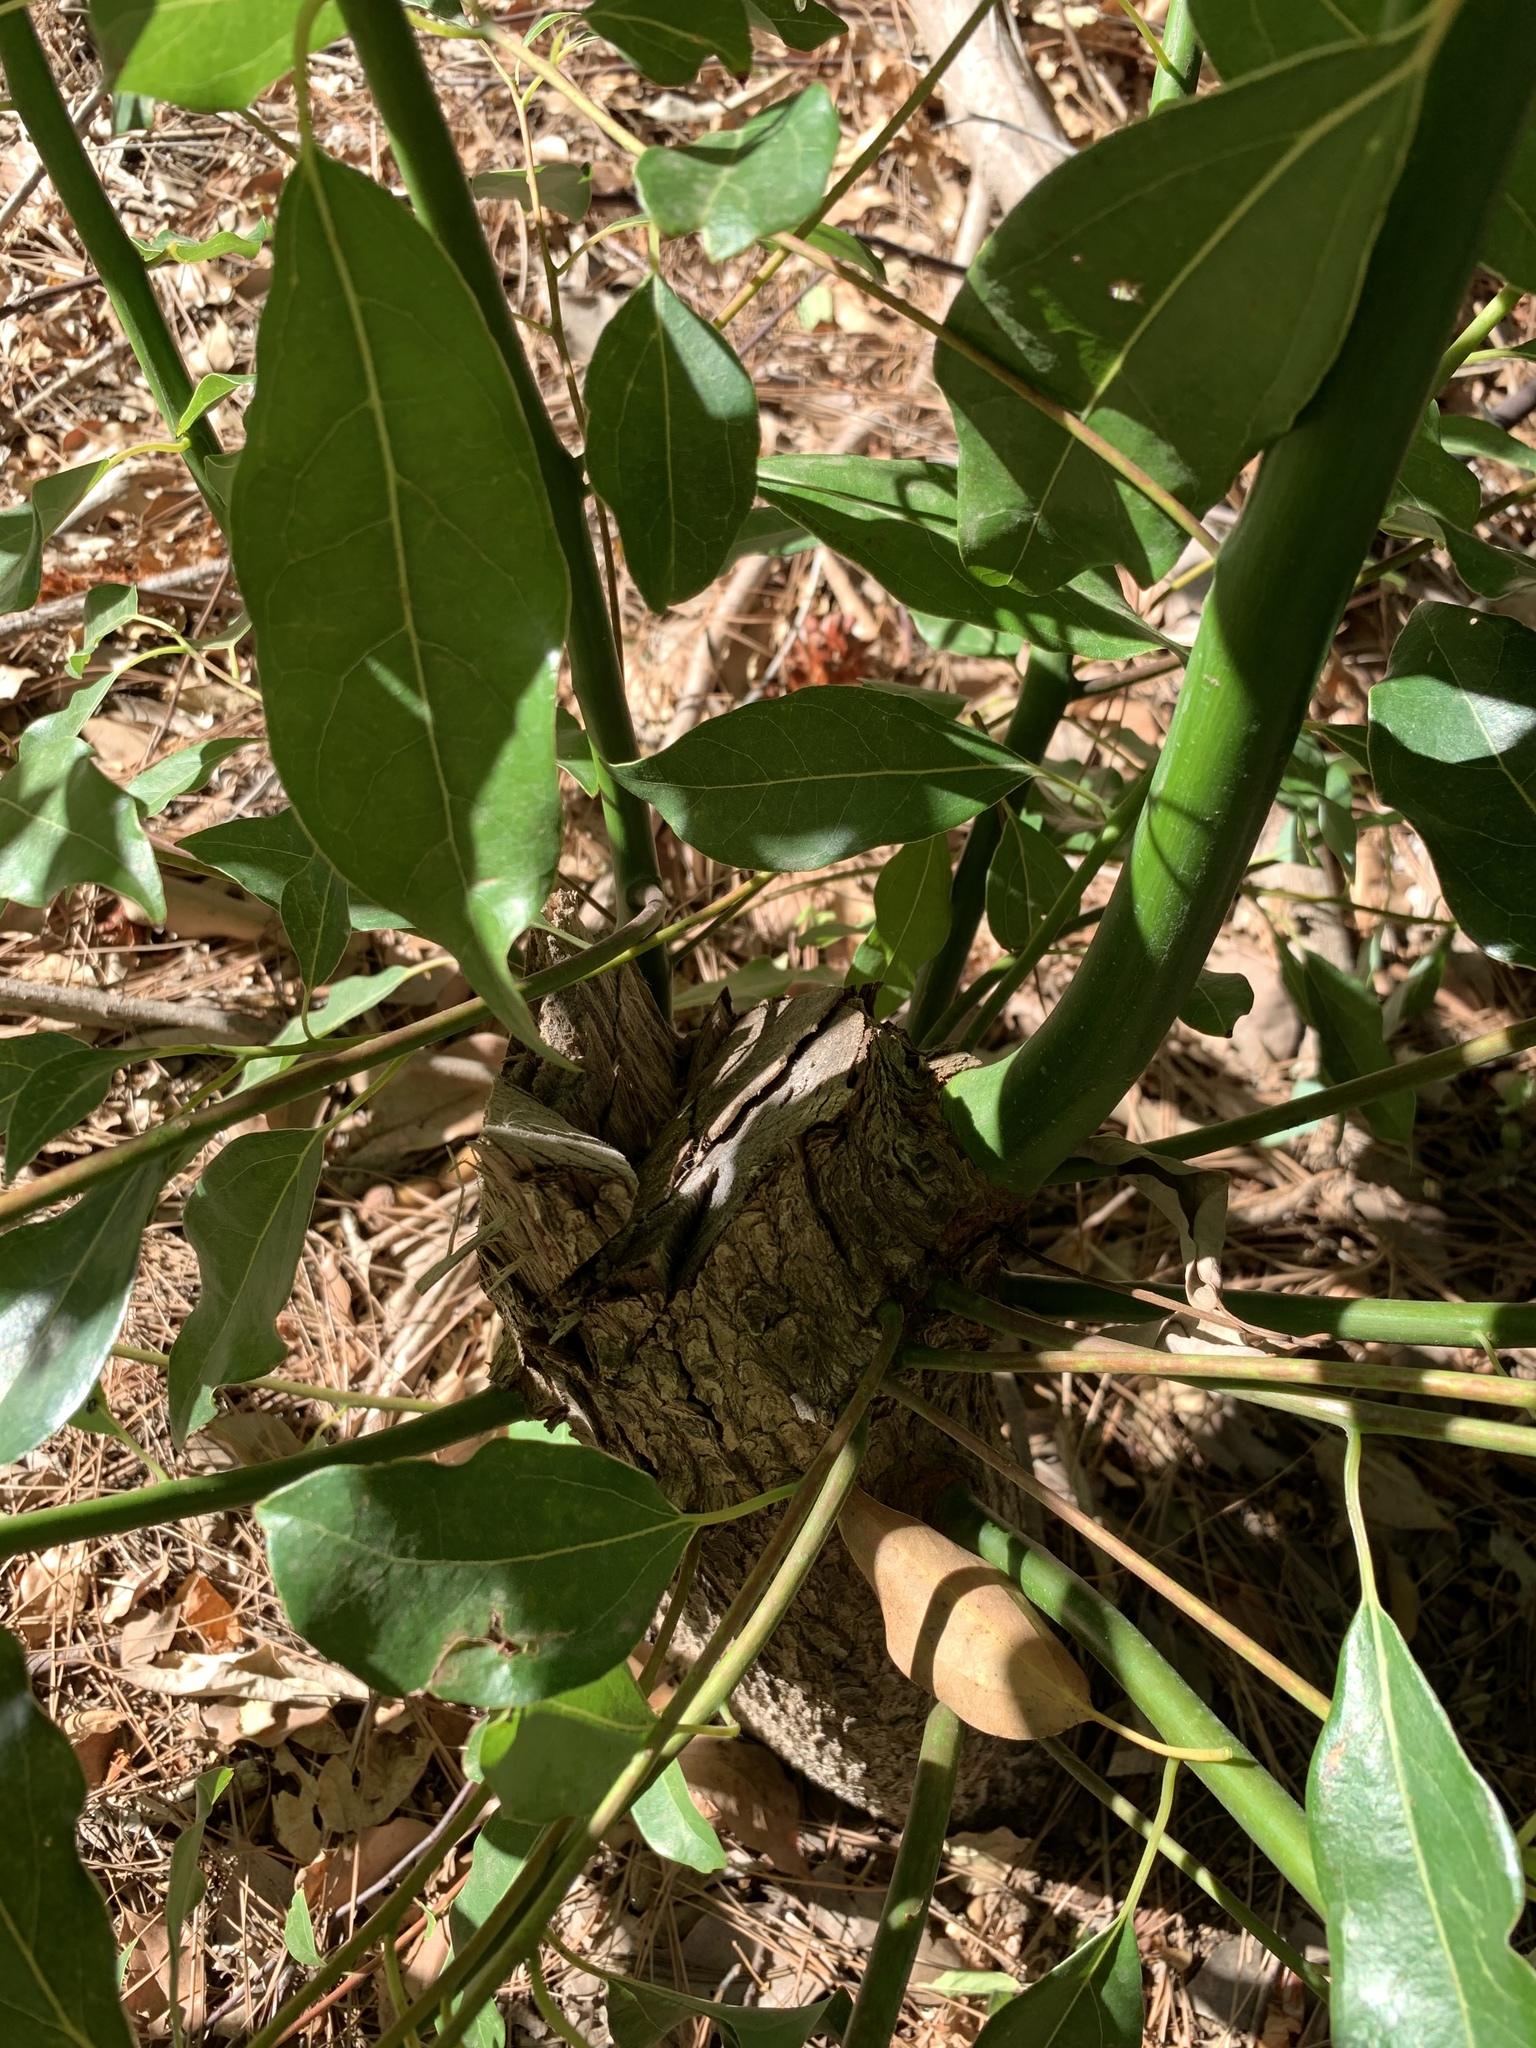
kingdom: Plantae
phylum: Tracheophyta
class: Magnoliopsida
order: Laurales
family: Lauraceae
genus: Cinnamomum
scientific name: Cinnamomum camphora
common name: Camphortree
